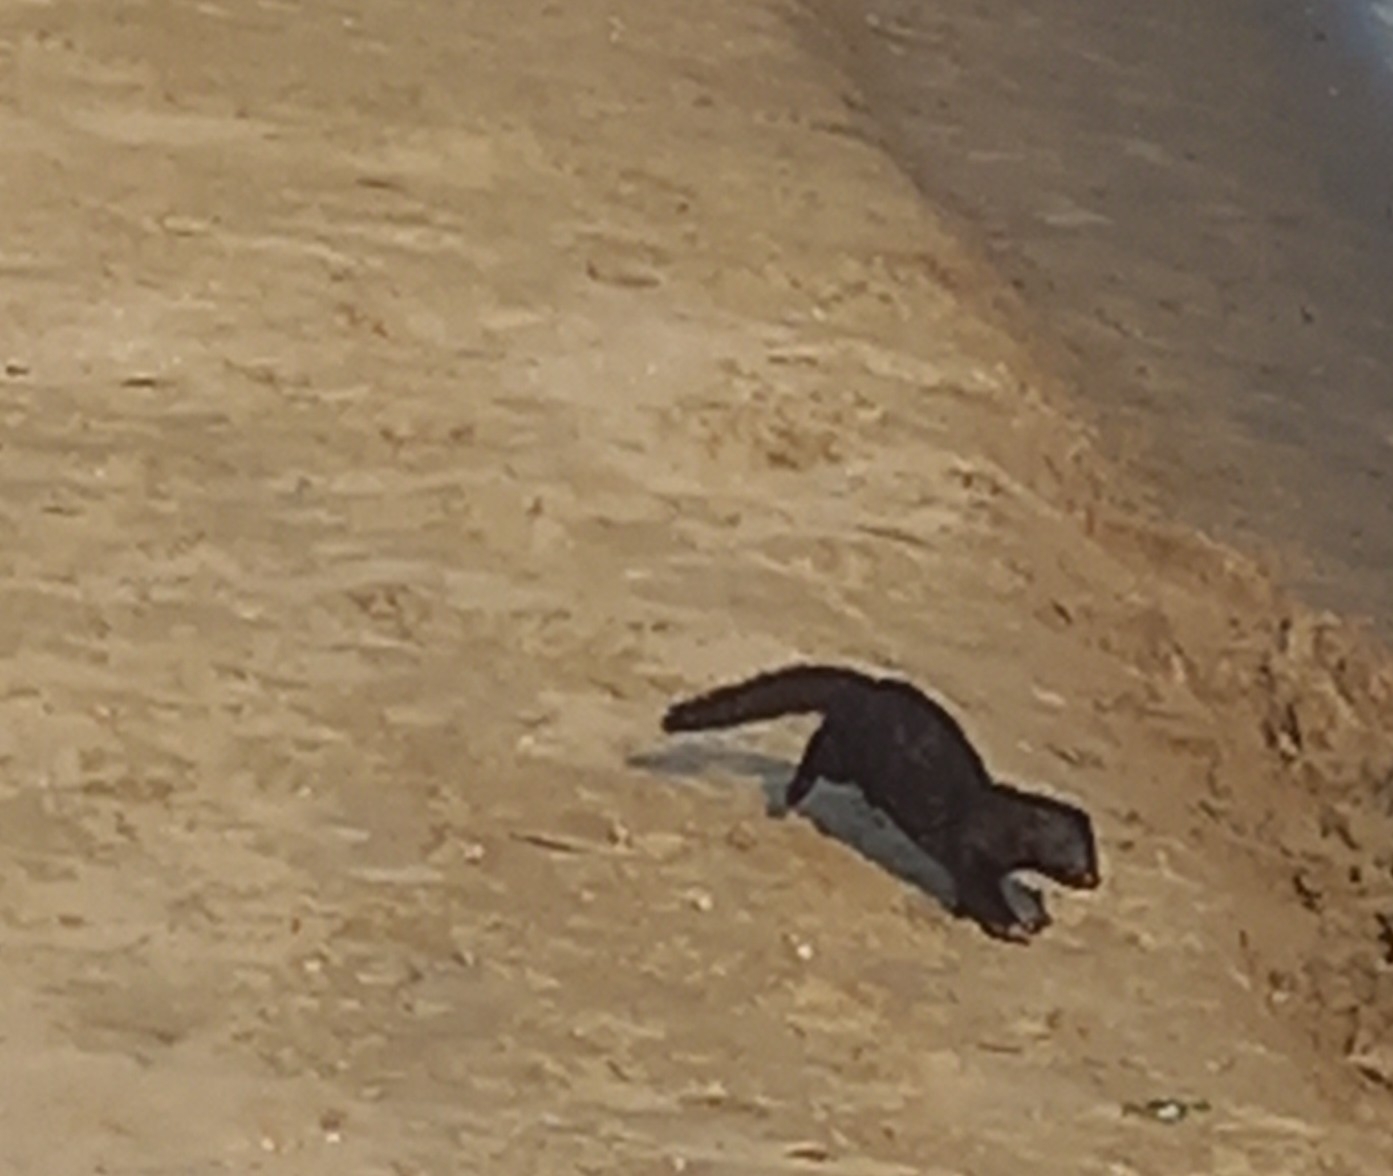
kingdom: Animalia
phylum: Chordata
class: Mammalia
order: Carnivora
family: Mustelidae
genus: Mustela
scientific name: Mustela
